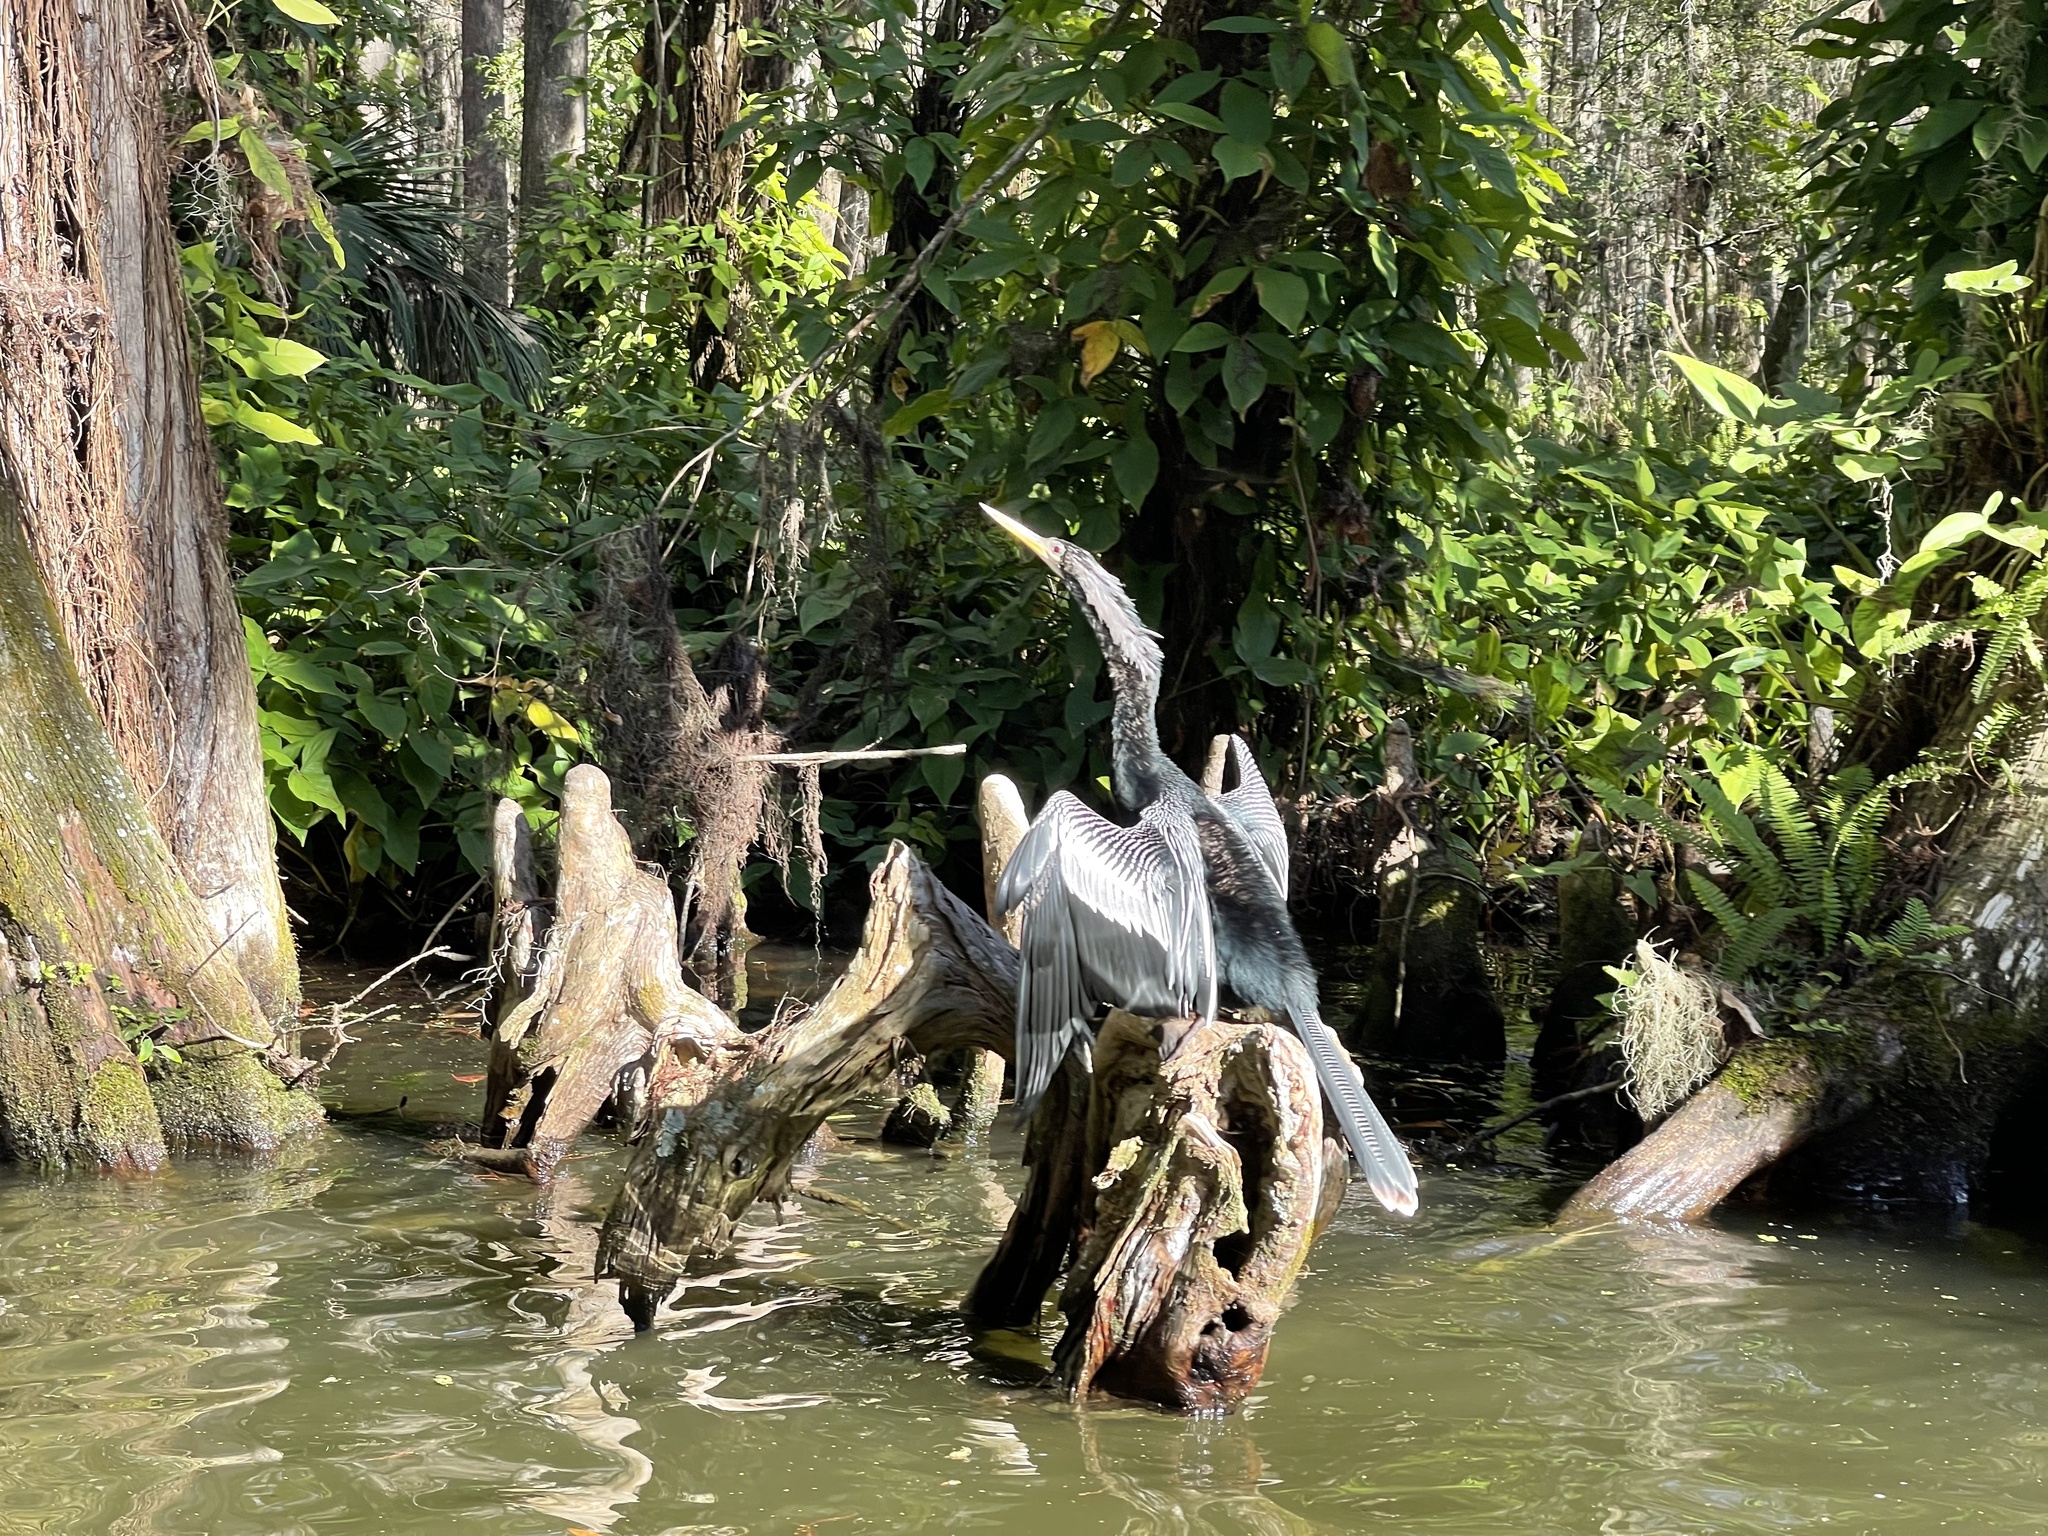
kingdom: Animalia
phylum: Chordata
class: Aves
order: Suliformes
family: Anhingidae
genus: Anhinga
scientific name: Anhinga anhinga
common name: Anhinga
